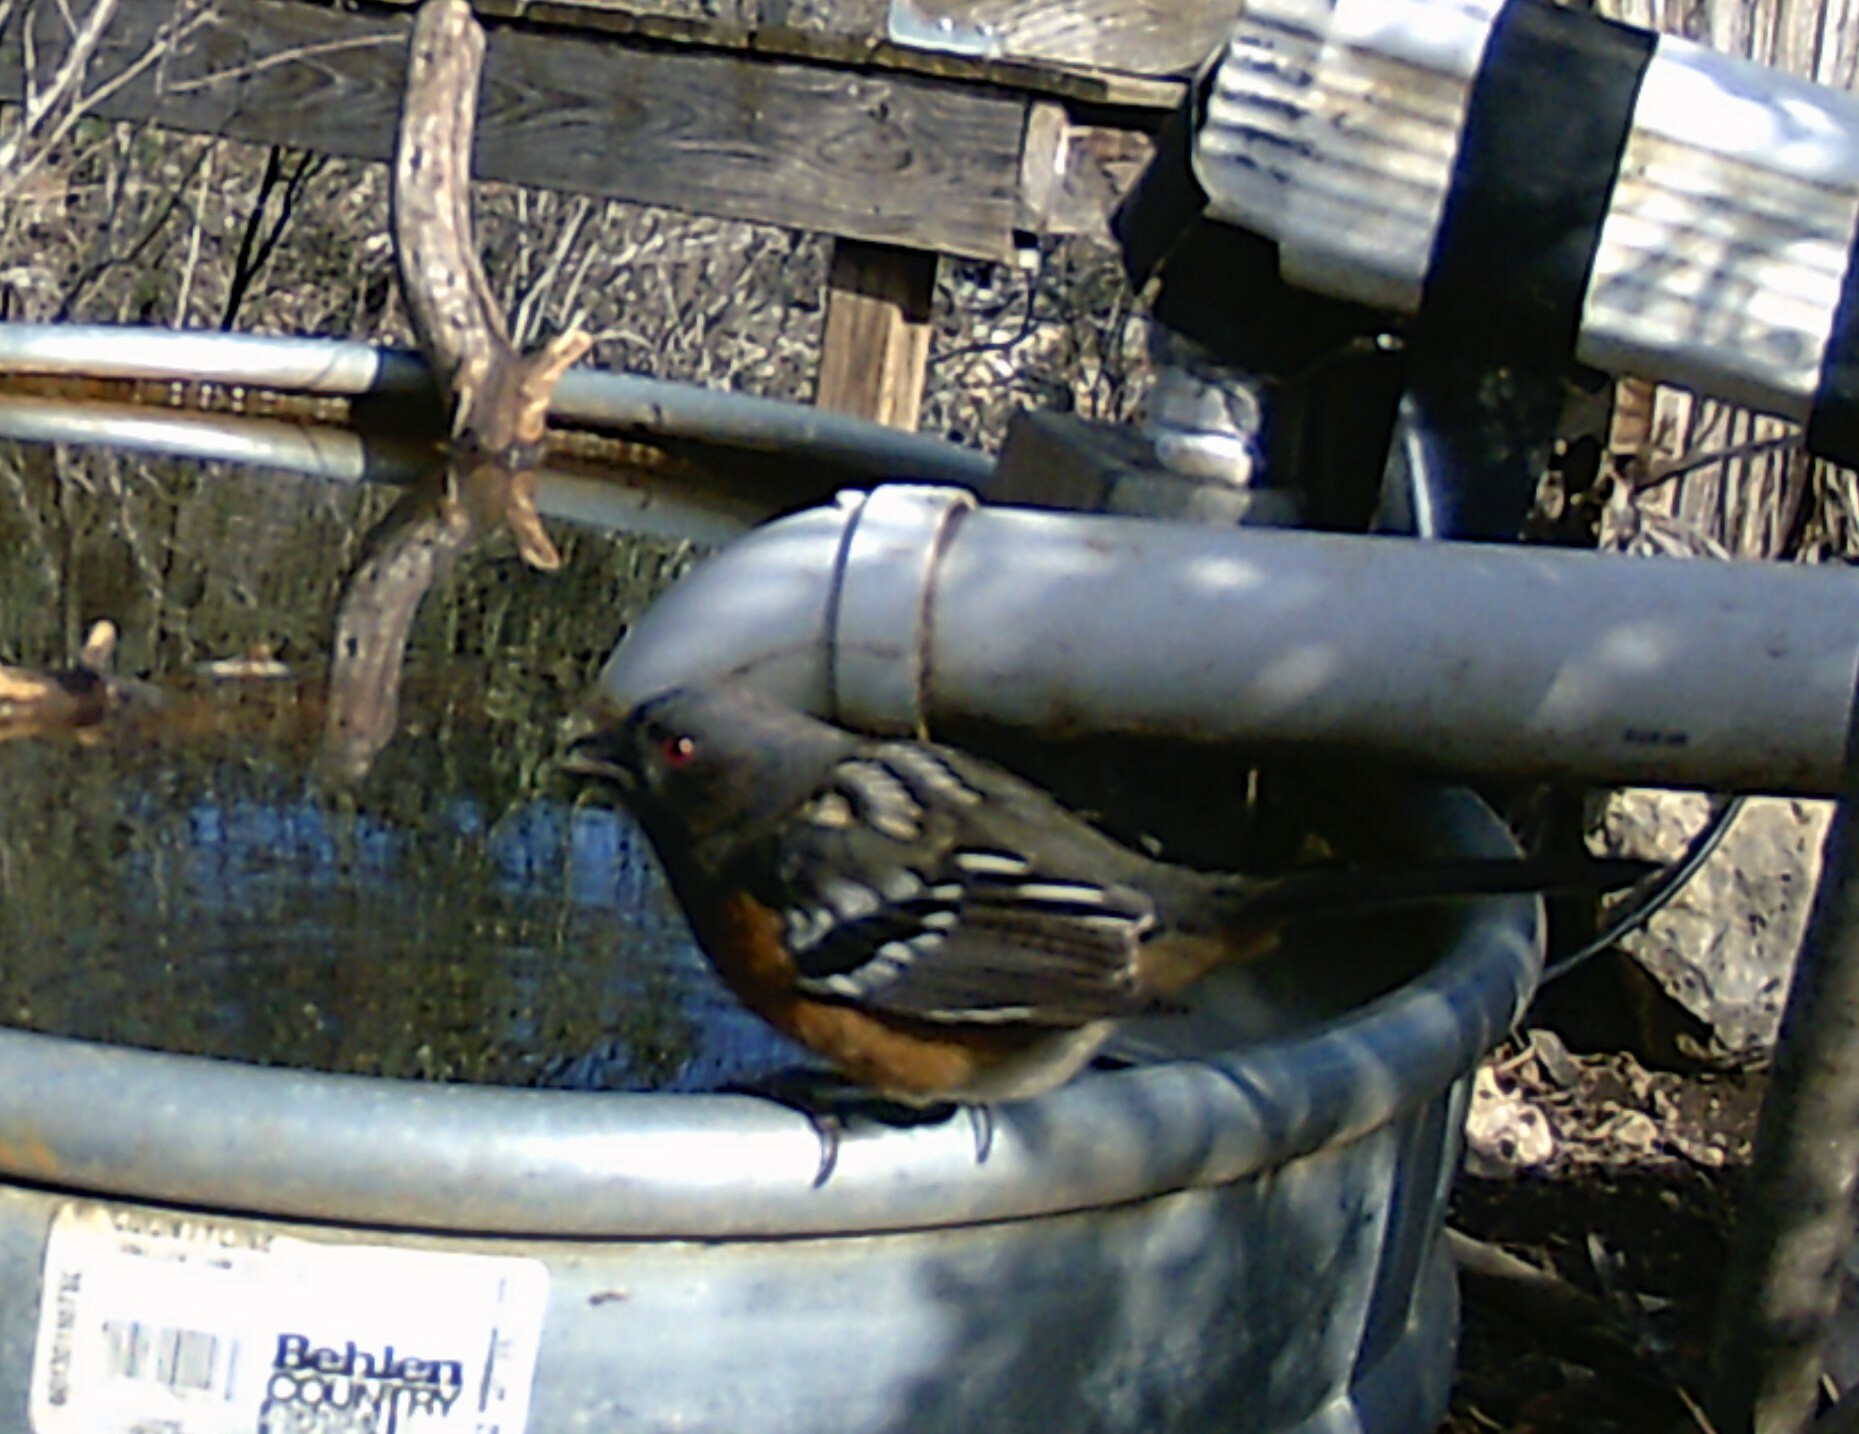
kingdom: Animalia
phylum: Chordata
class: Aves
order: Passeriformes
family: Passerellidae
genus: Pipilo
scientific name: Pipilo maculatus
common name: Spotted towhee
